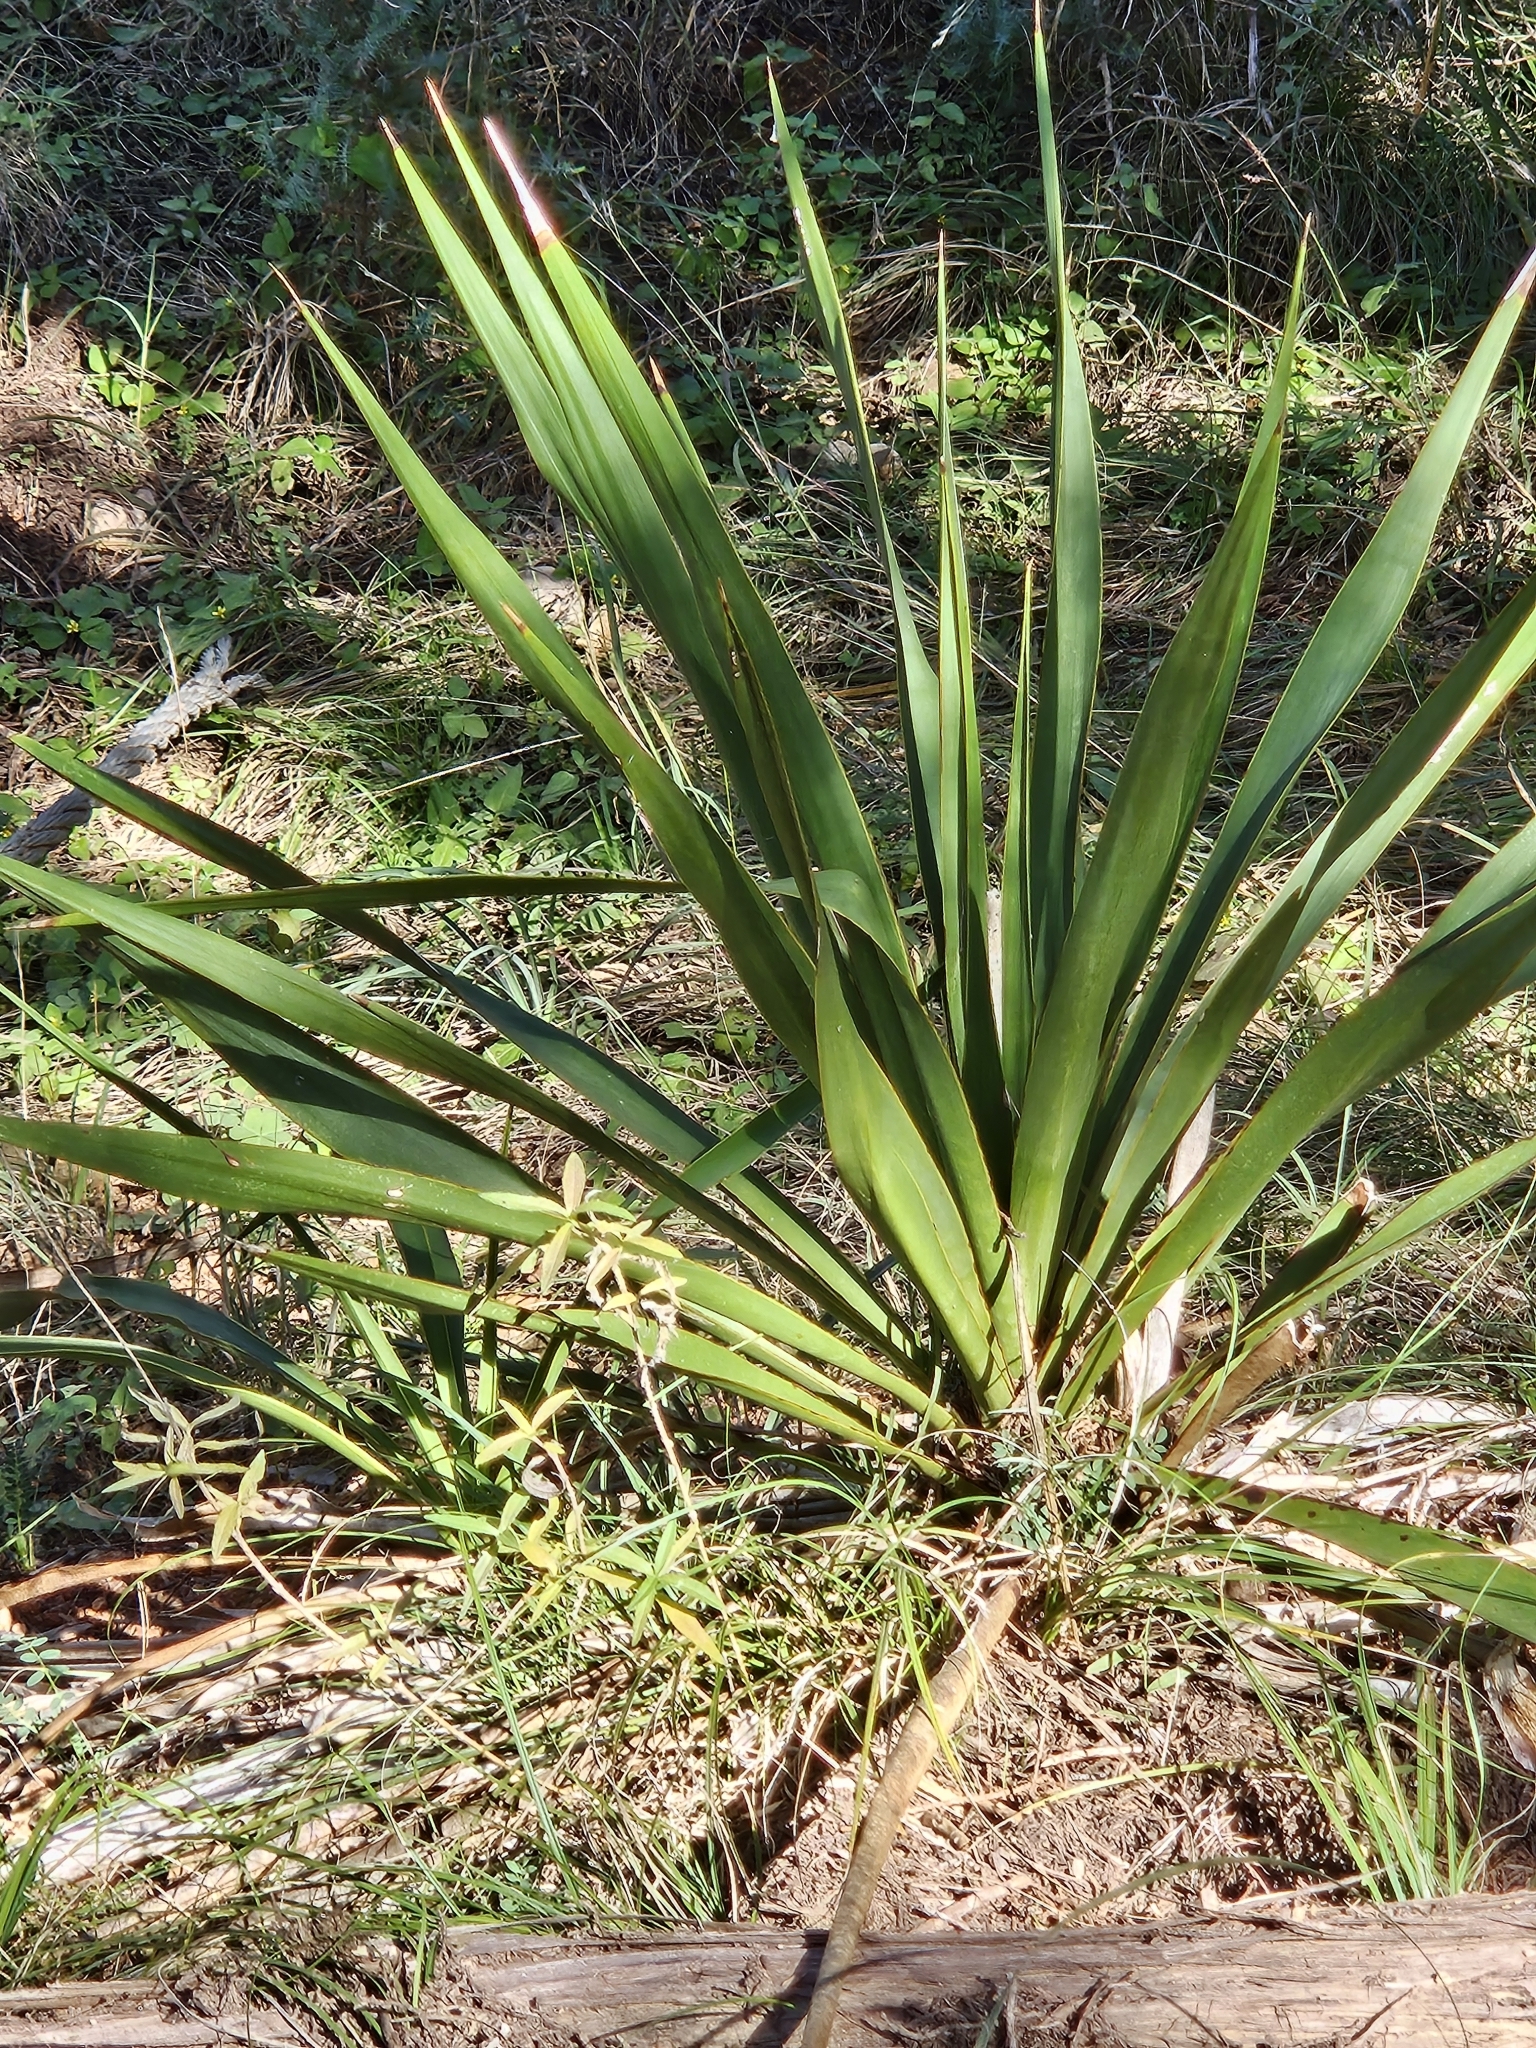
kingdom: Plantae
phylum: Tracheophyta
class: Liliopsida
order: Asparagales
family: Asparagaceae
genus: Yucca
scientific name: Yucca rupicola
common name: Twisted-leaf spanish-dagger
